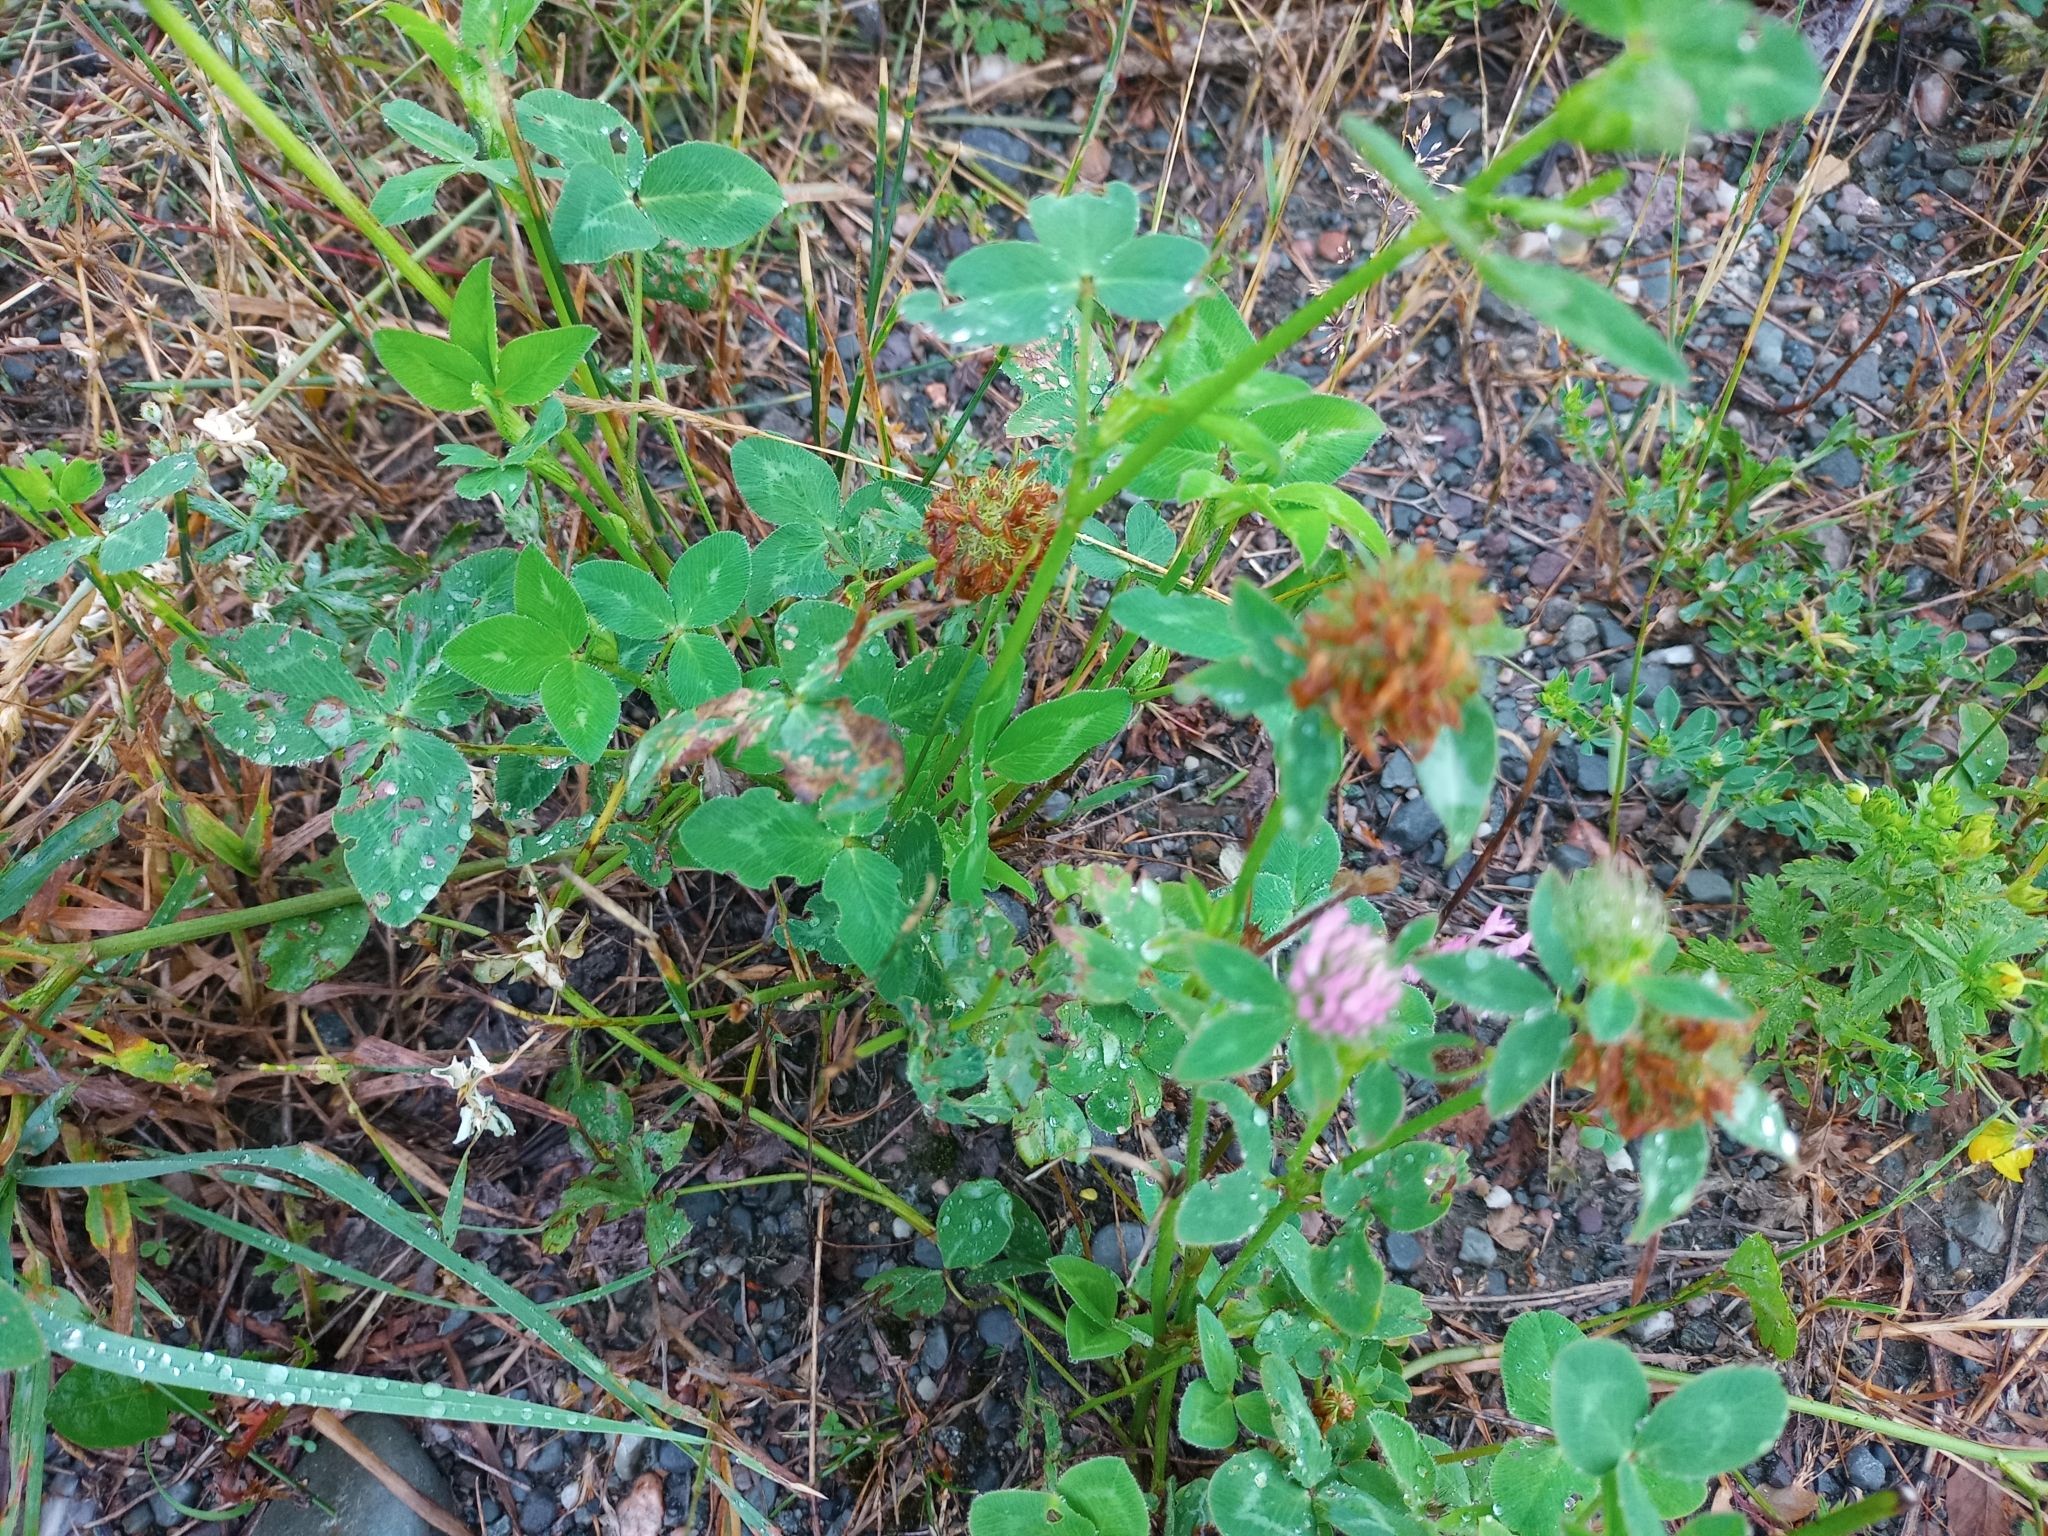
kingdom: Plantae
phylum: Tracheophyta
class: Magnoliopsida
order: Fabales
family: Fabaceae
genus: Trifolium
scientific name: Trifolium pratense
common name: Red clover
